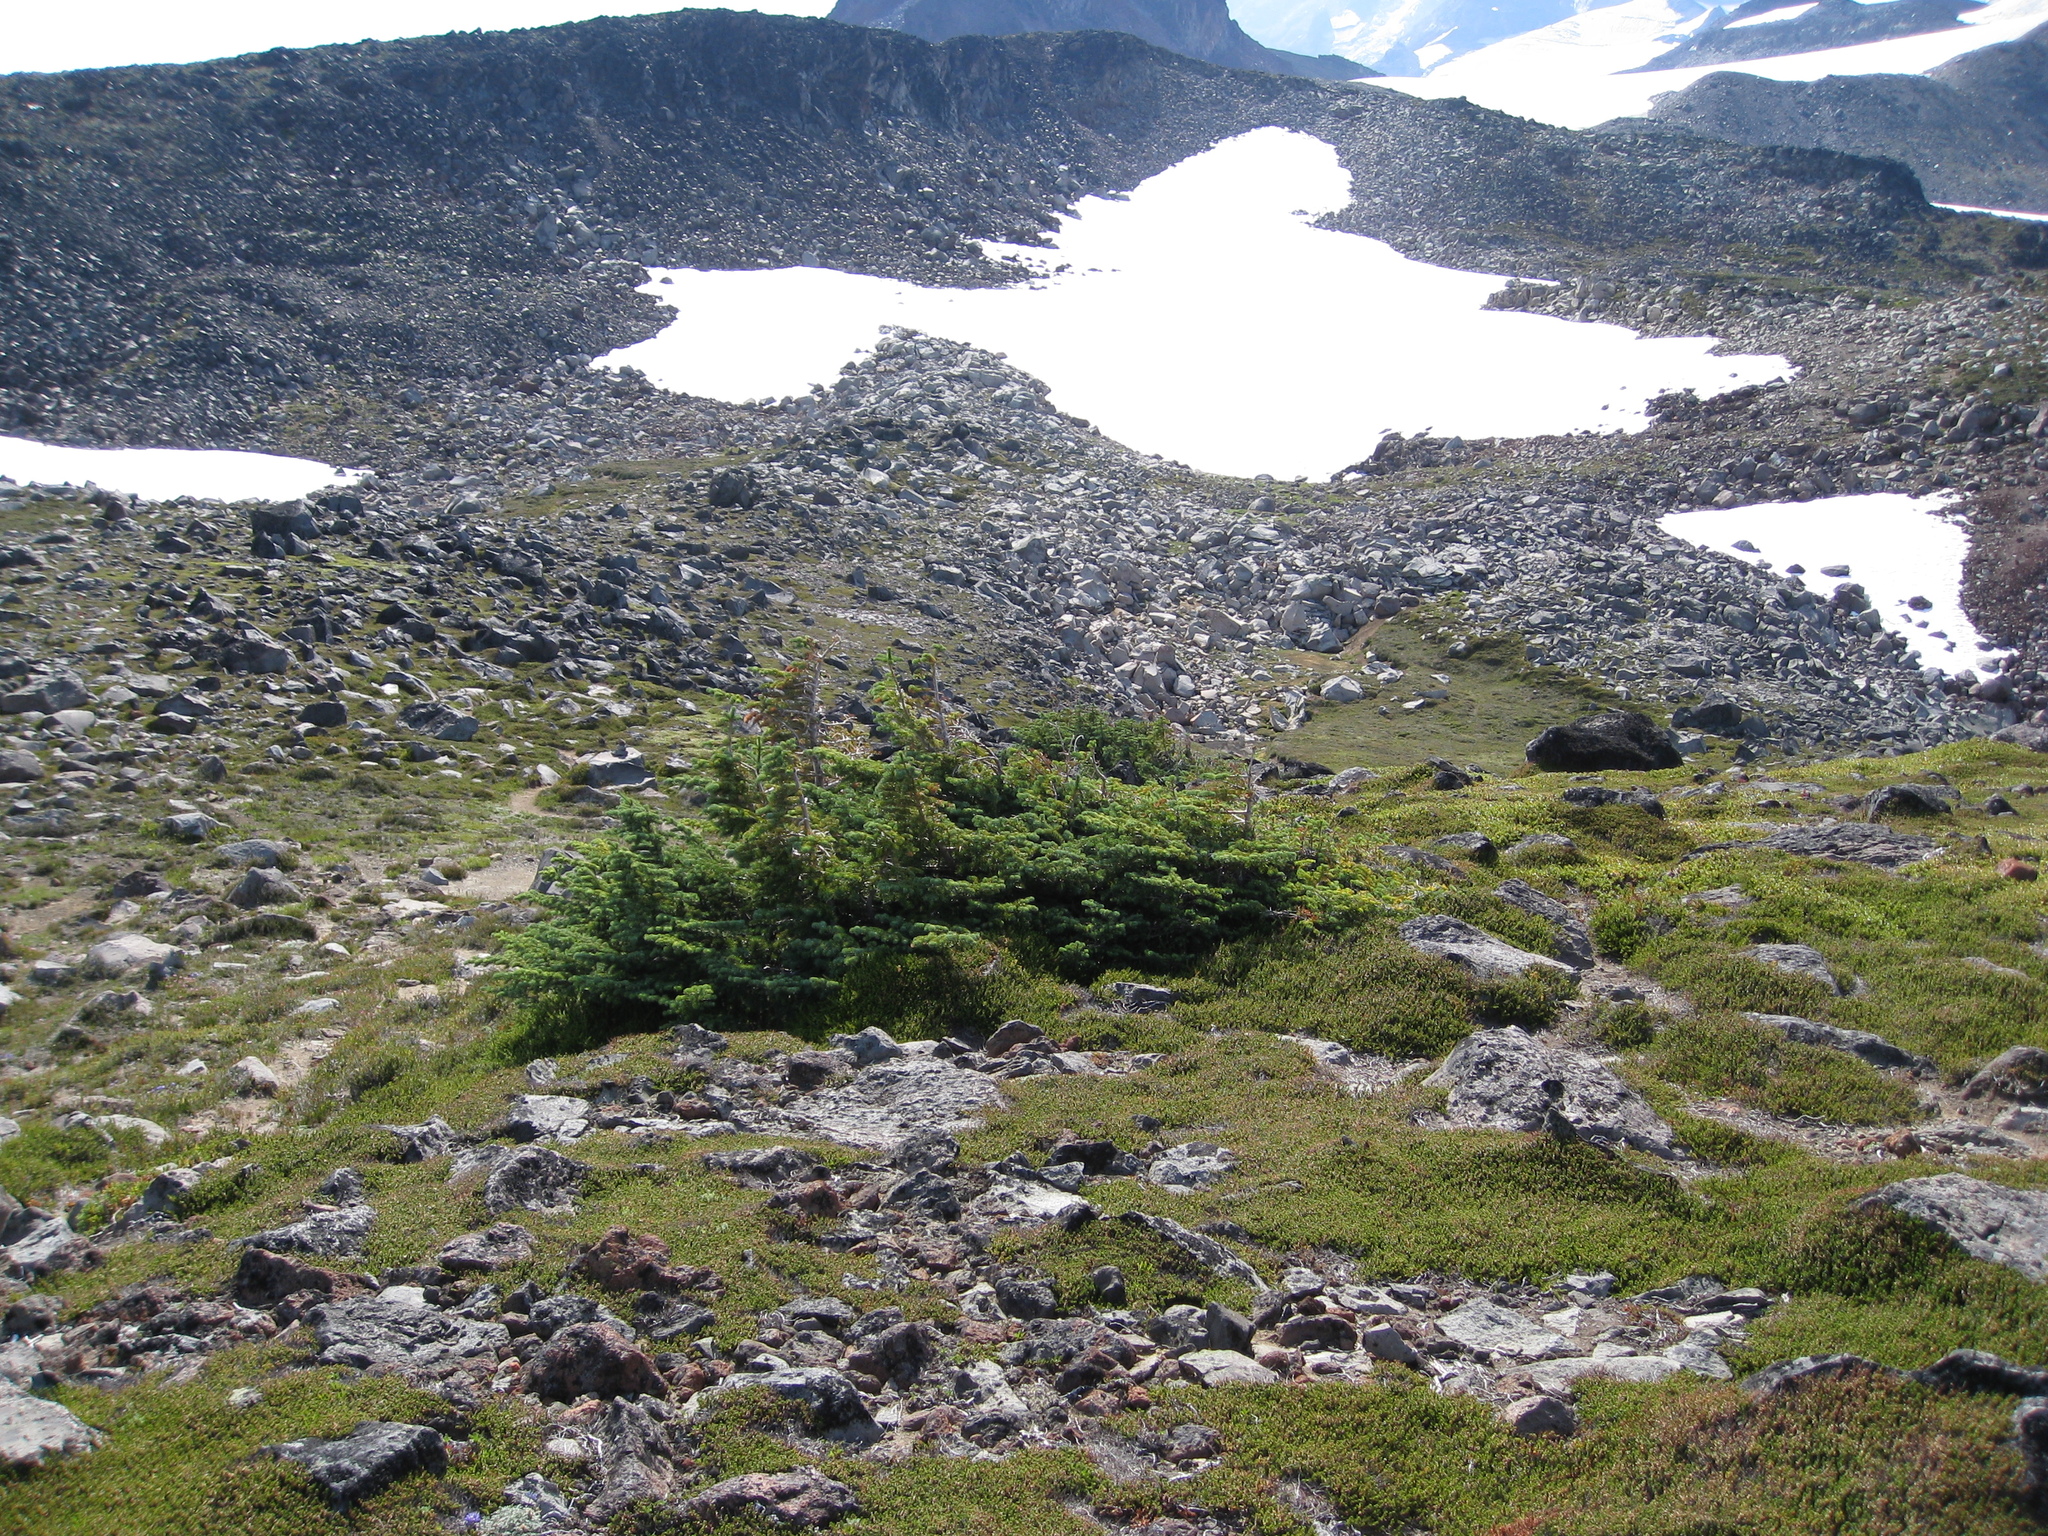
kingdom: Plantae
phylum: Tracheophyta
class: Pinopsida
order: Pinales
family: Pinaceae
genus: Abies
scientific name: Abies lasiocarpa
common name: Subalpine fir
